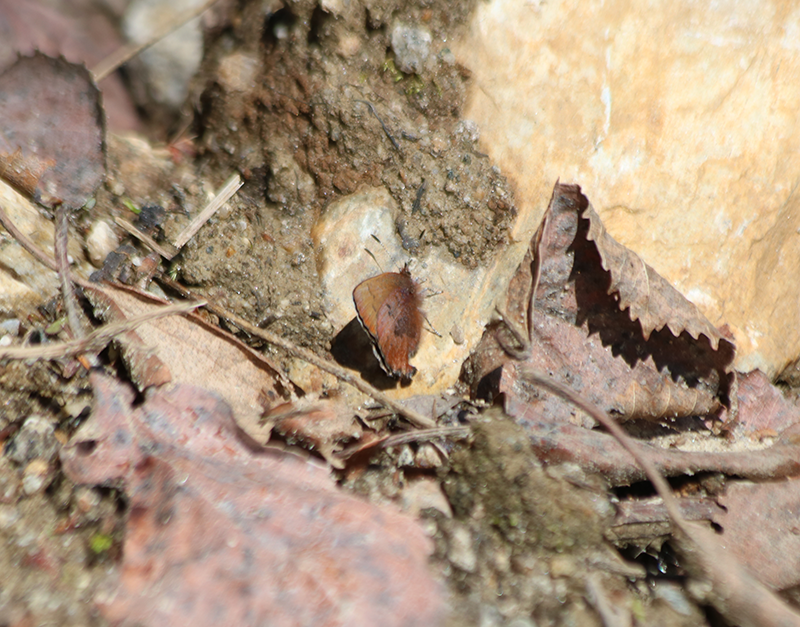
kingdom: Animalia
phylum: Arthropoda
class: Insecta
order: Lepidoptera
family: Lycaenidae
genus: Incisalia
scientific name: Incisalia irioides
